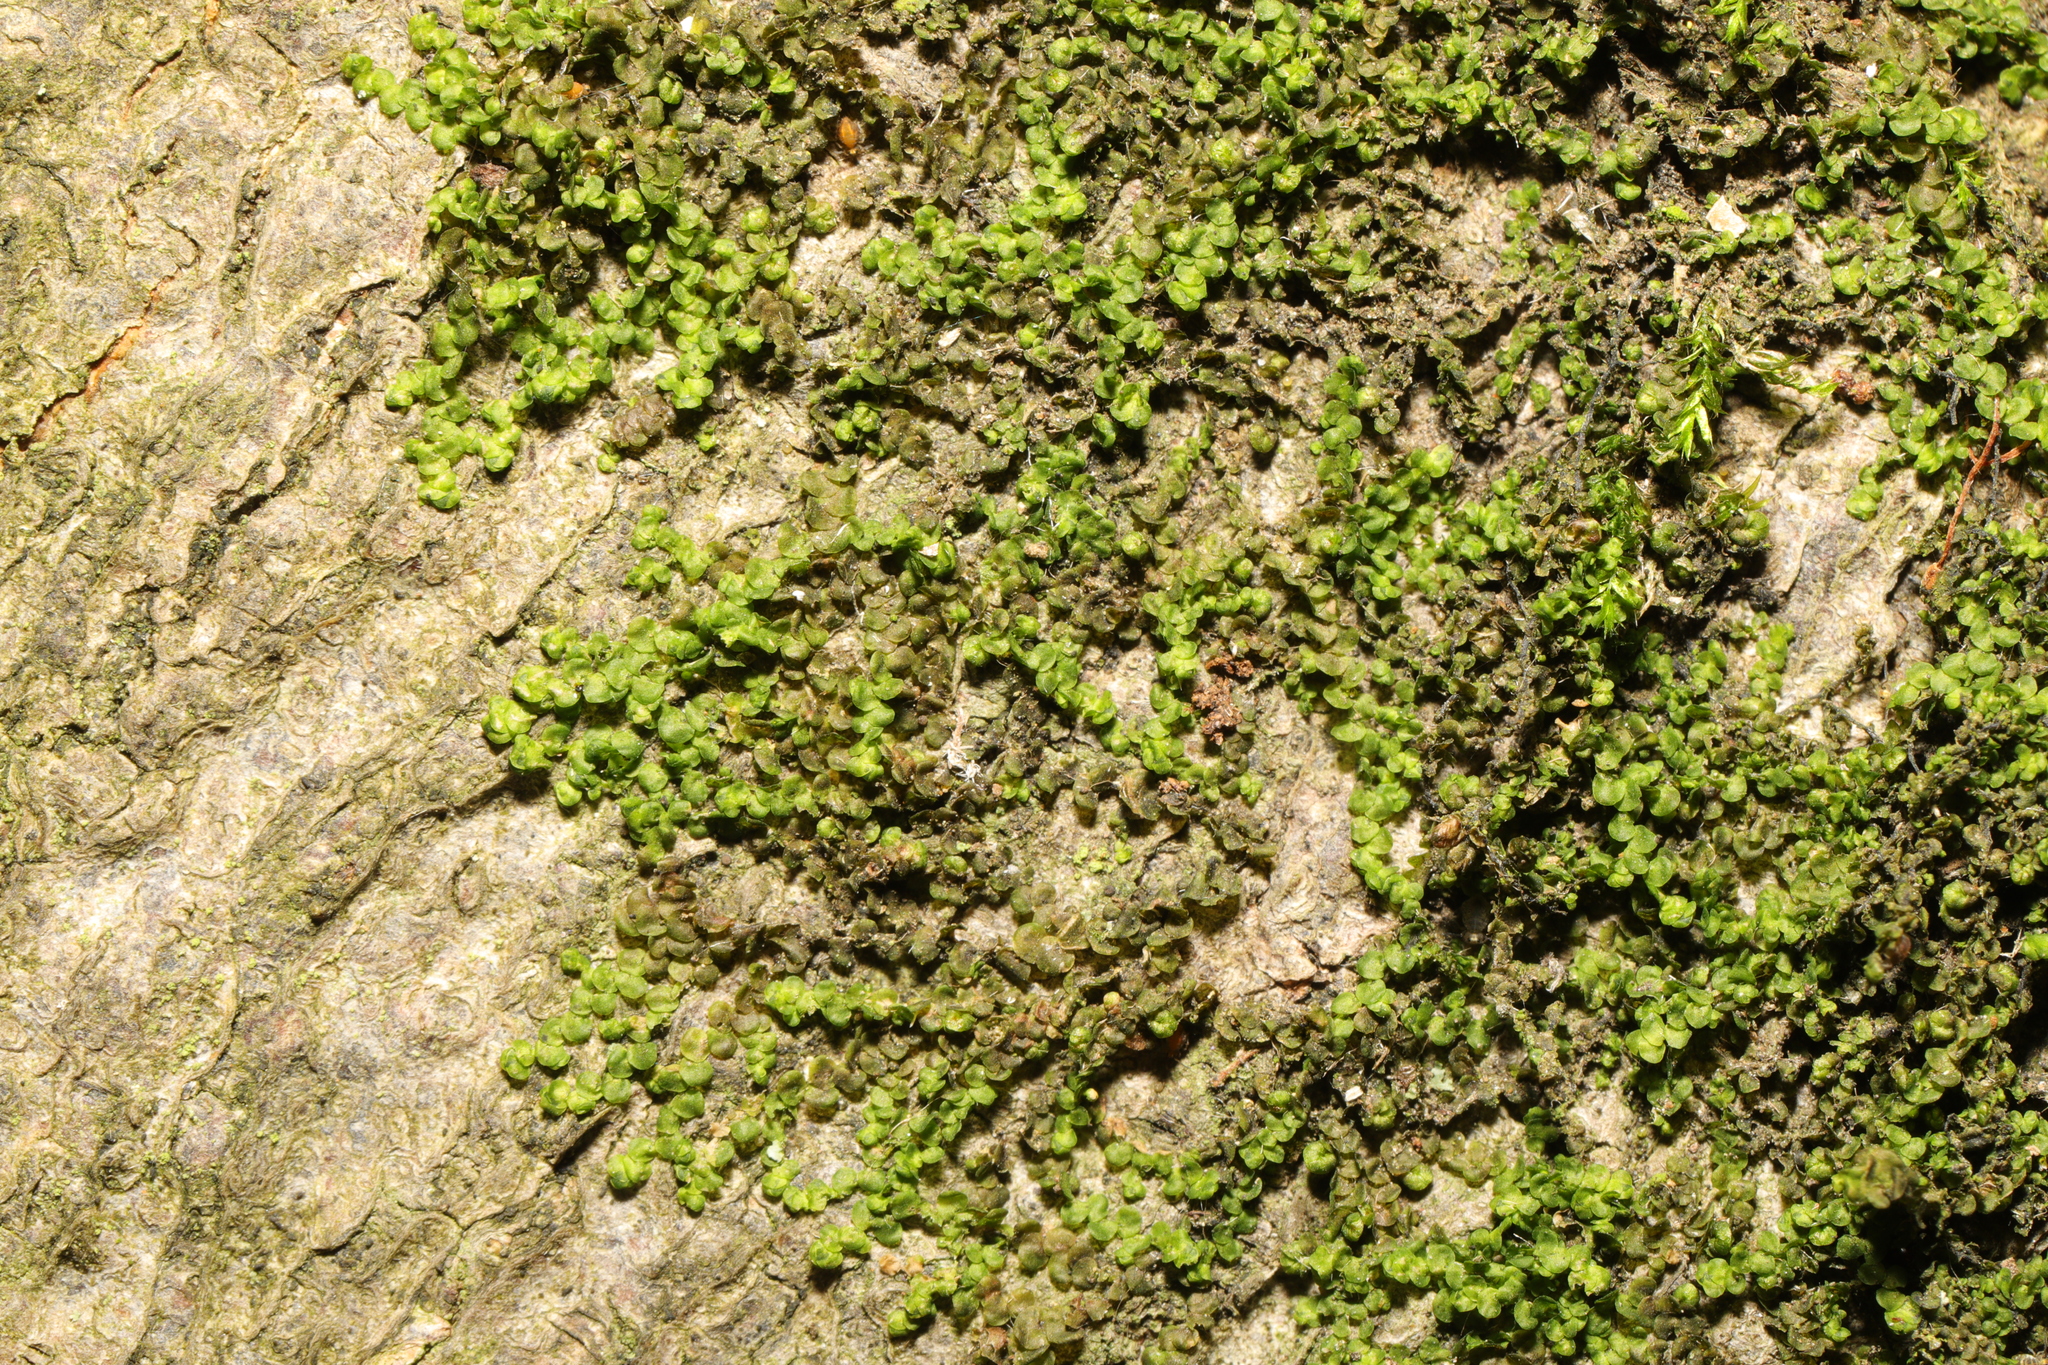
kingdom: Plantae
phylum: Marchantiophyta
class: Jungermanniopsida
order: Porellales
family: Frullaniaceae
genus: Frullania
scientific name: Frullania dilatata
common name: Dilated scalewort
